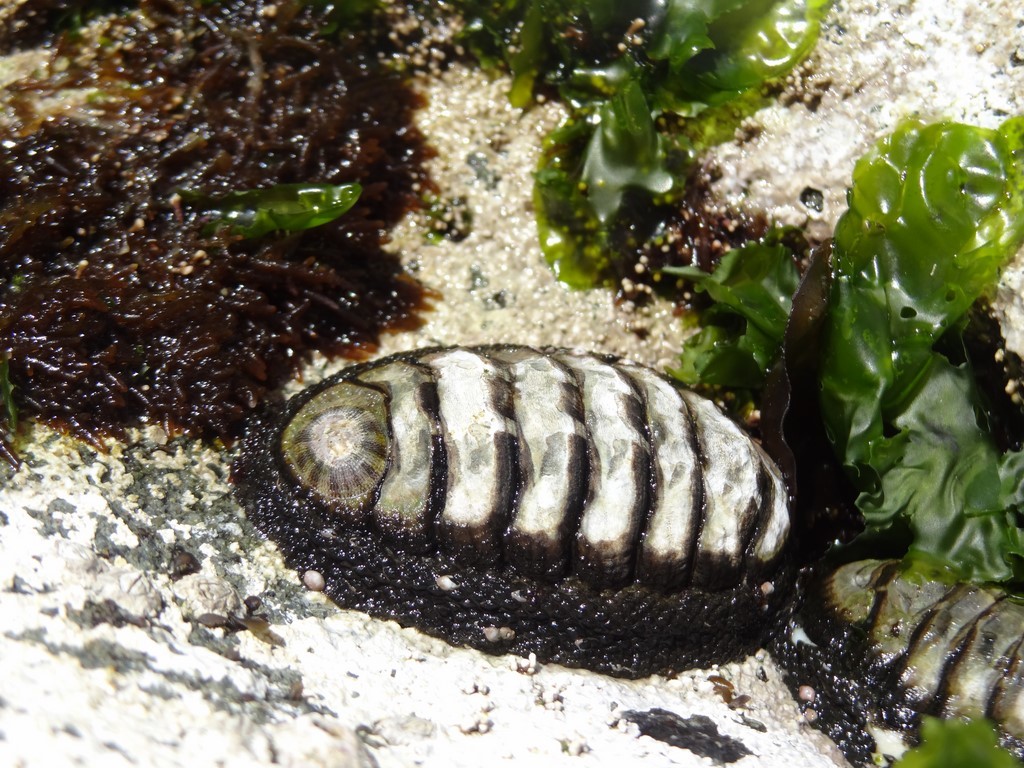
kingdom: Animalia
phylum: Mollusca
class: Polyplacophora
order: Chitonida
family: Chitonidae
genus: Chiton
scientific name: Chiton granosus
